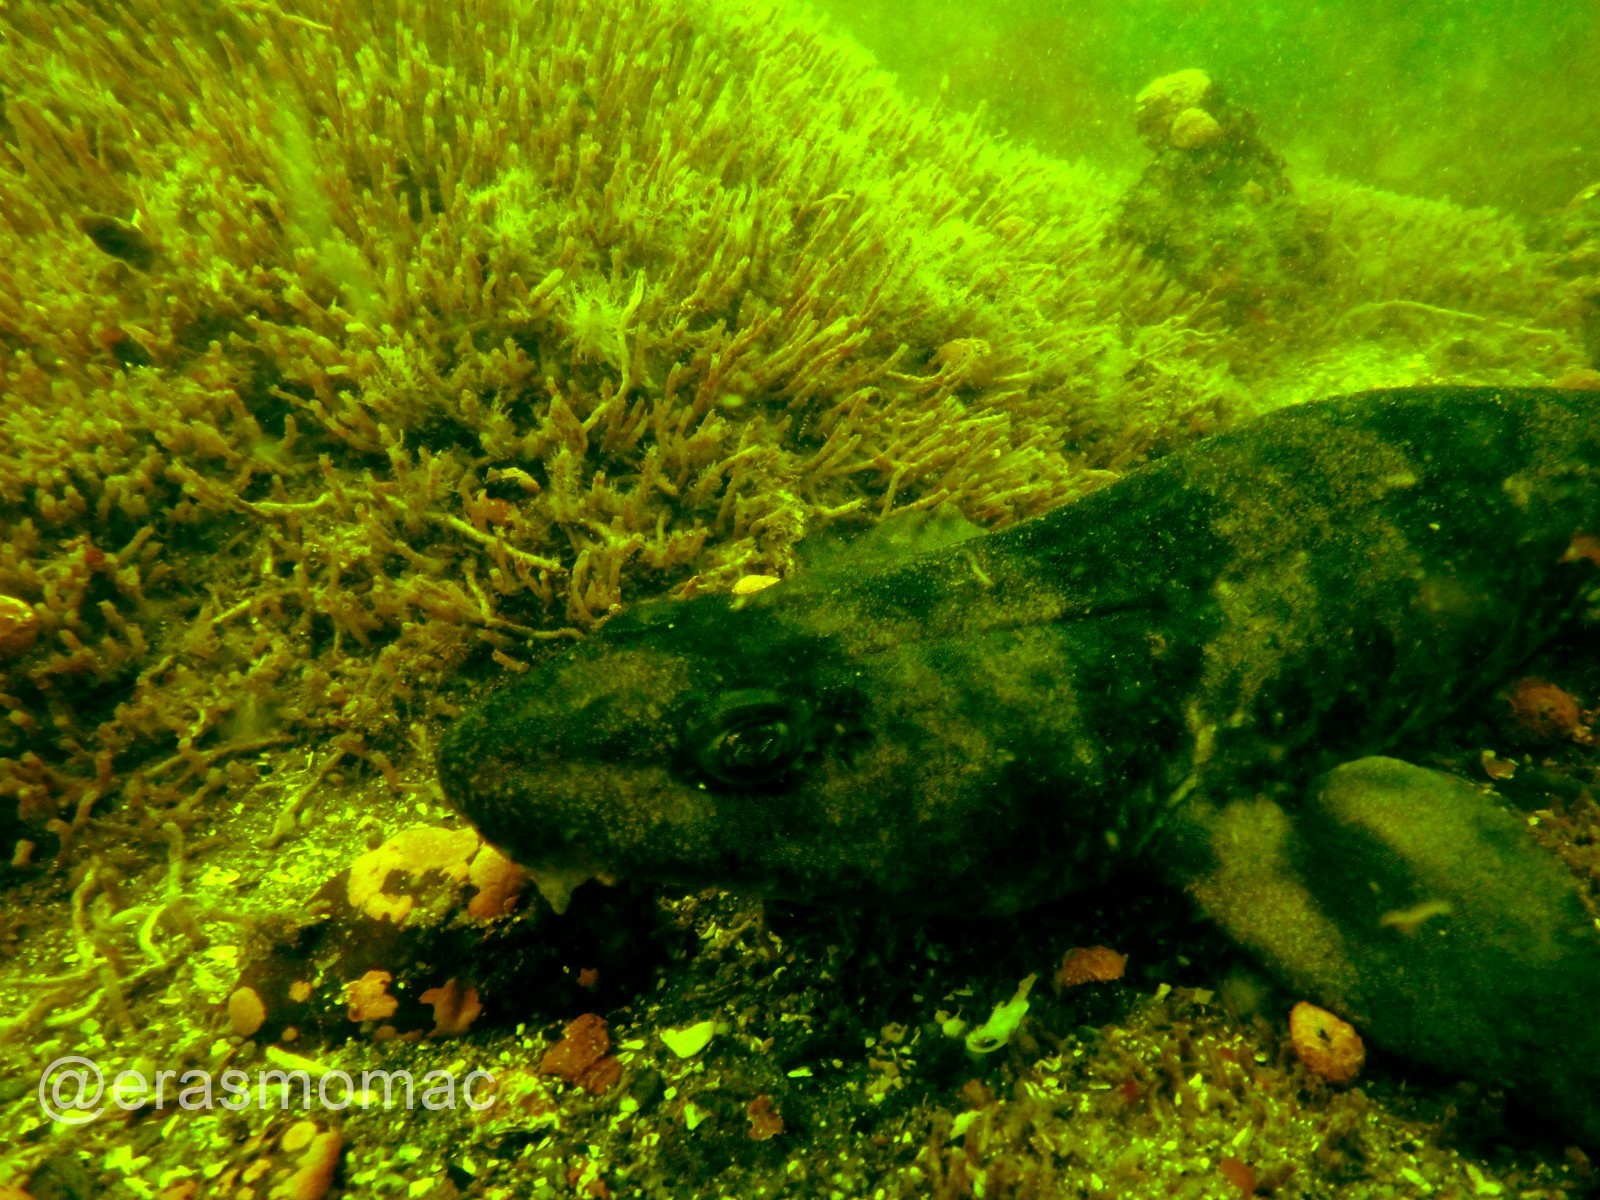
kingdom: Animalia
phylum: Chordata
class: Elasmobranchii
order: Carcharhiniformes
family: Scyliorhinidae
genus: Schroederichthys
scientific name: Schroederichthys chilensis
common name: Redspotted catshark
